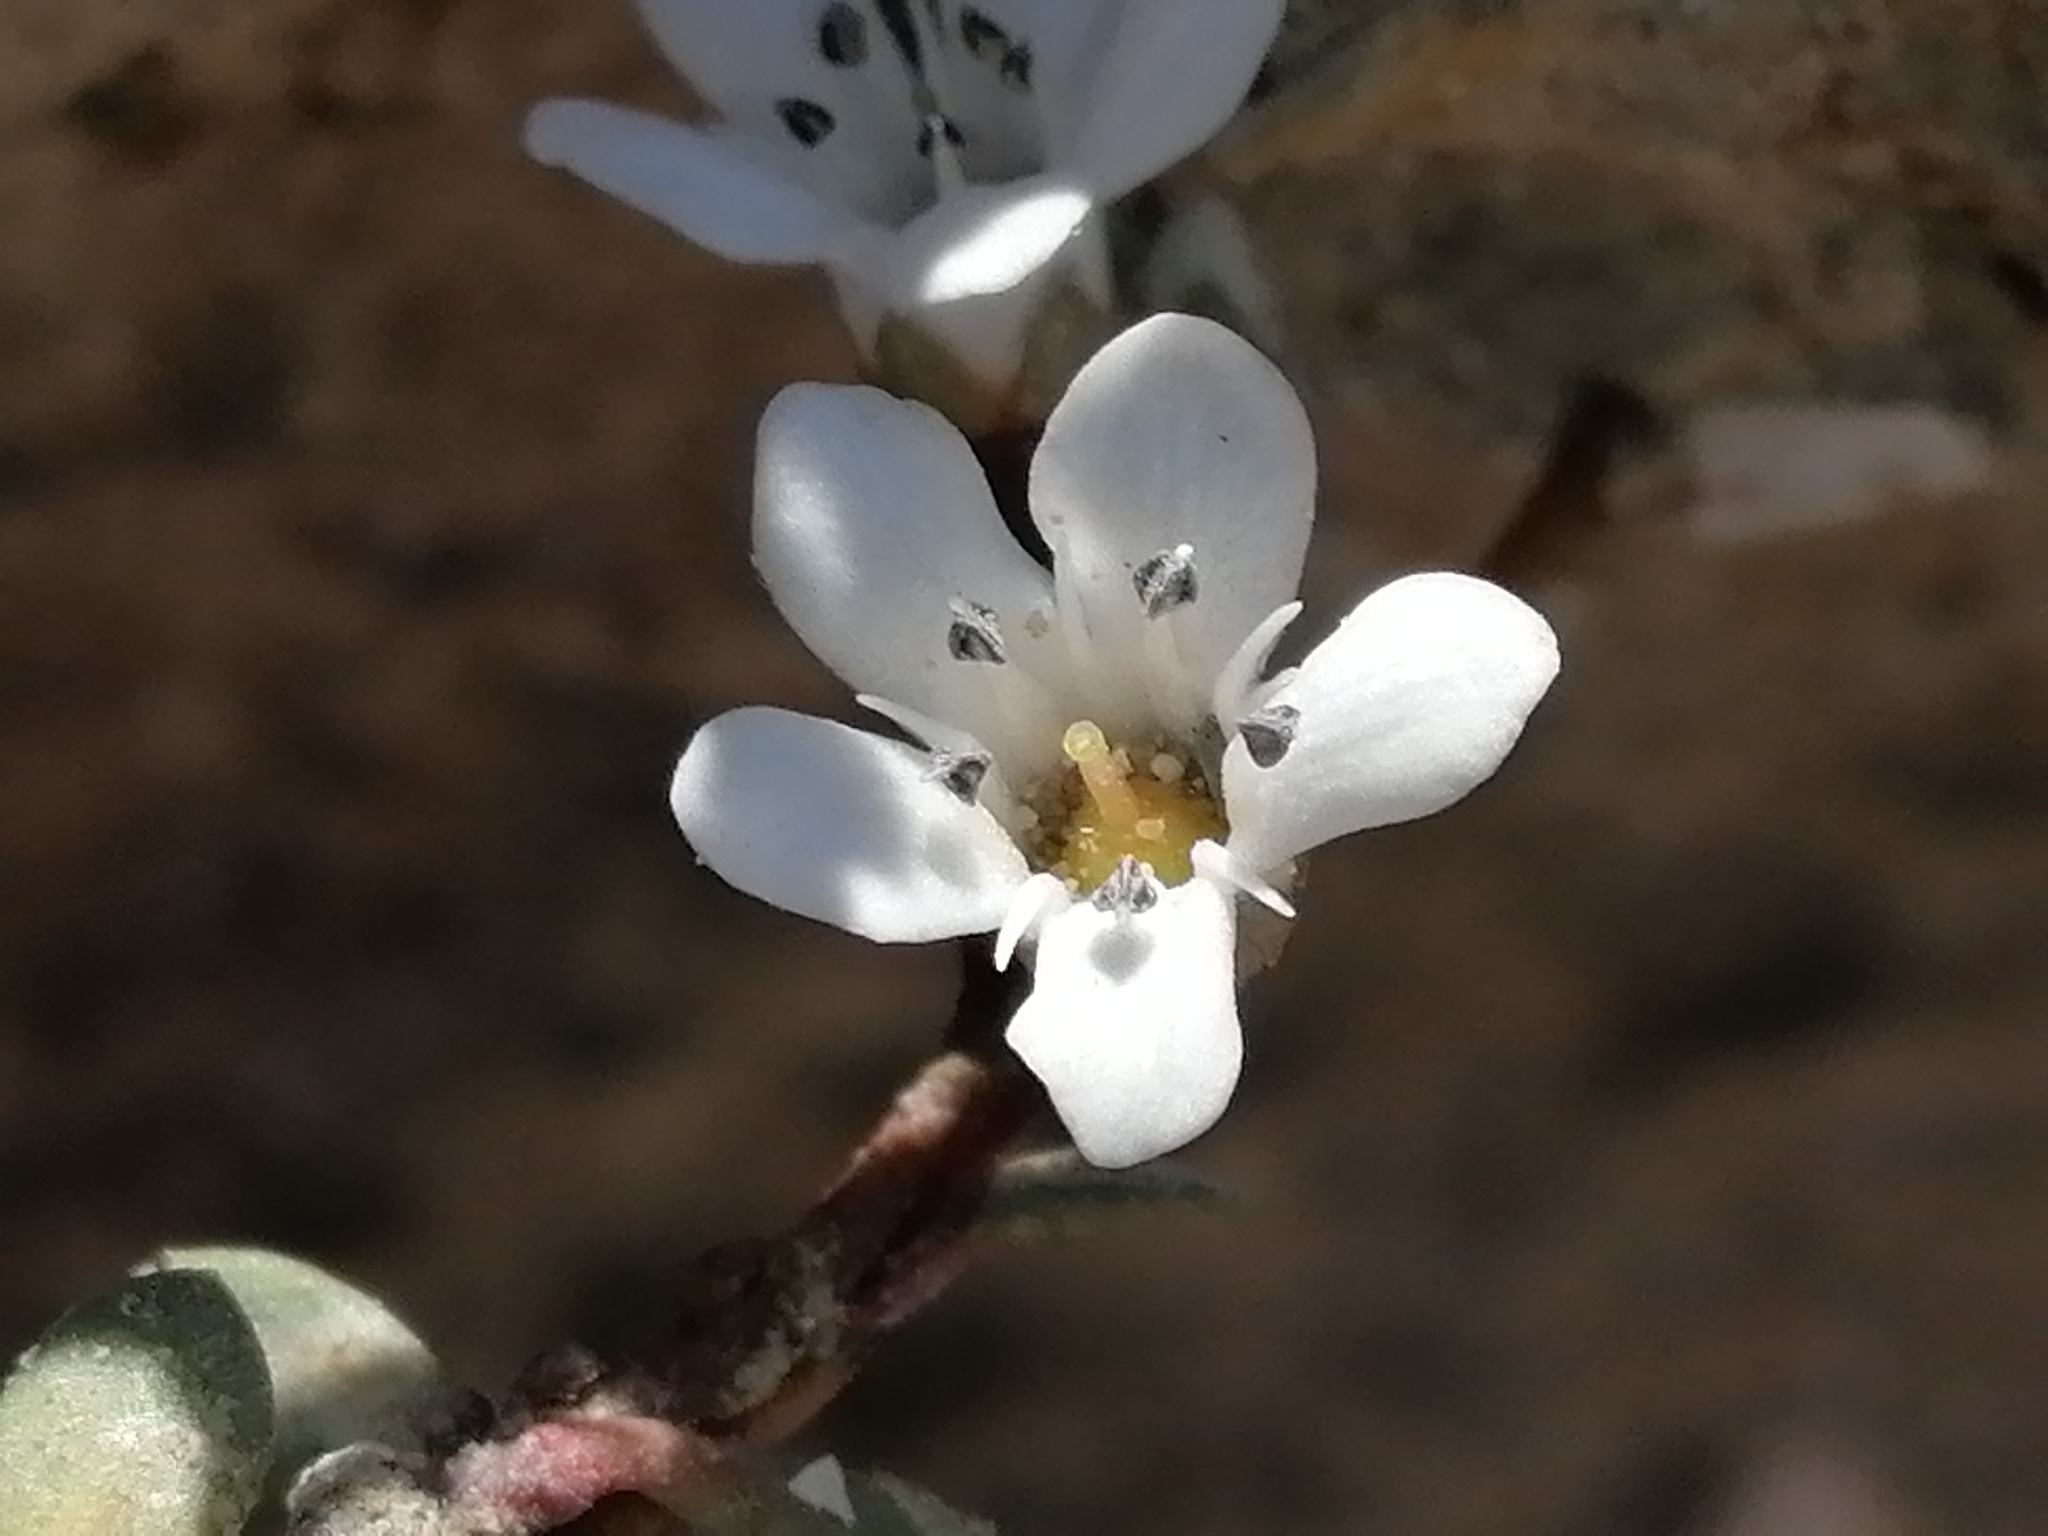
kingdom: Plantae
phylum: Tracheophyta
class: Magnoliopsida
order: Ericales
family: Primulaceae
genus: Samolus
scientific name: Samolus repens
